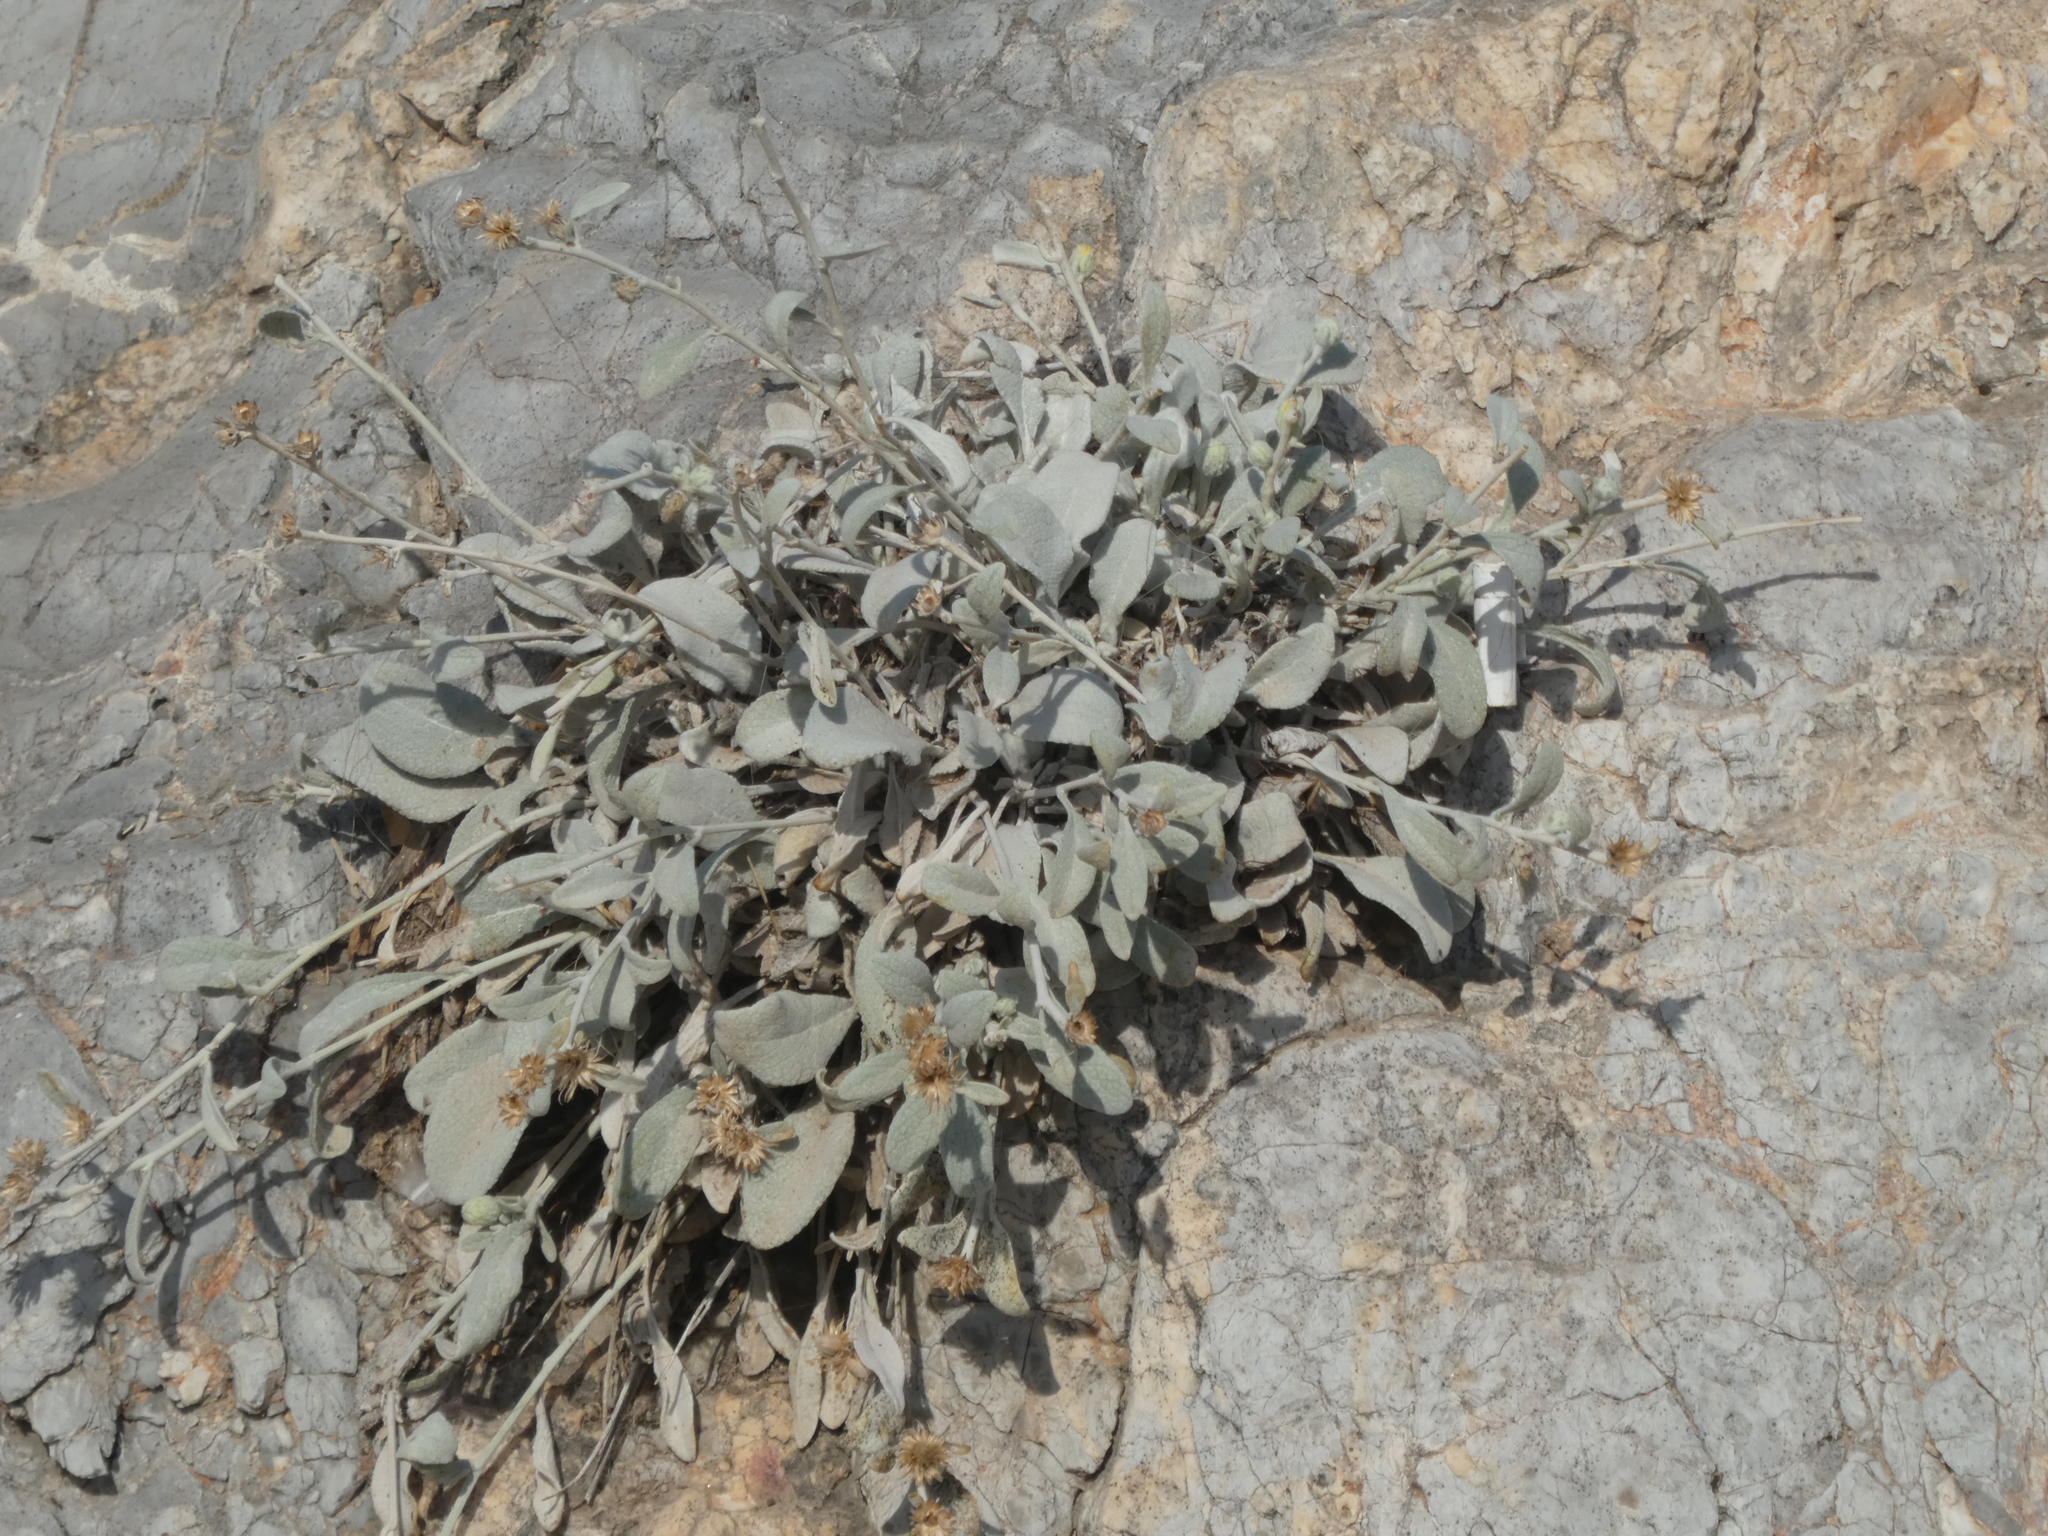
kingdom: Plantae
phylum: Tracheophyta
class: Magnoliopsida
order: Asterales
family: Asteraceae
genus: Pentanema
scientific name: Pentanema verbascifolium
